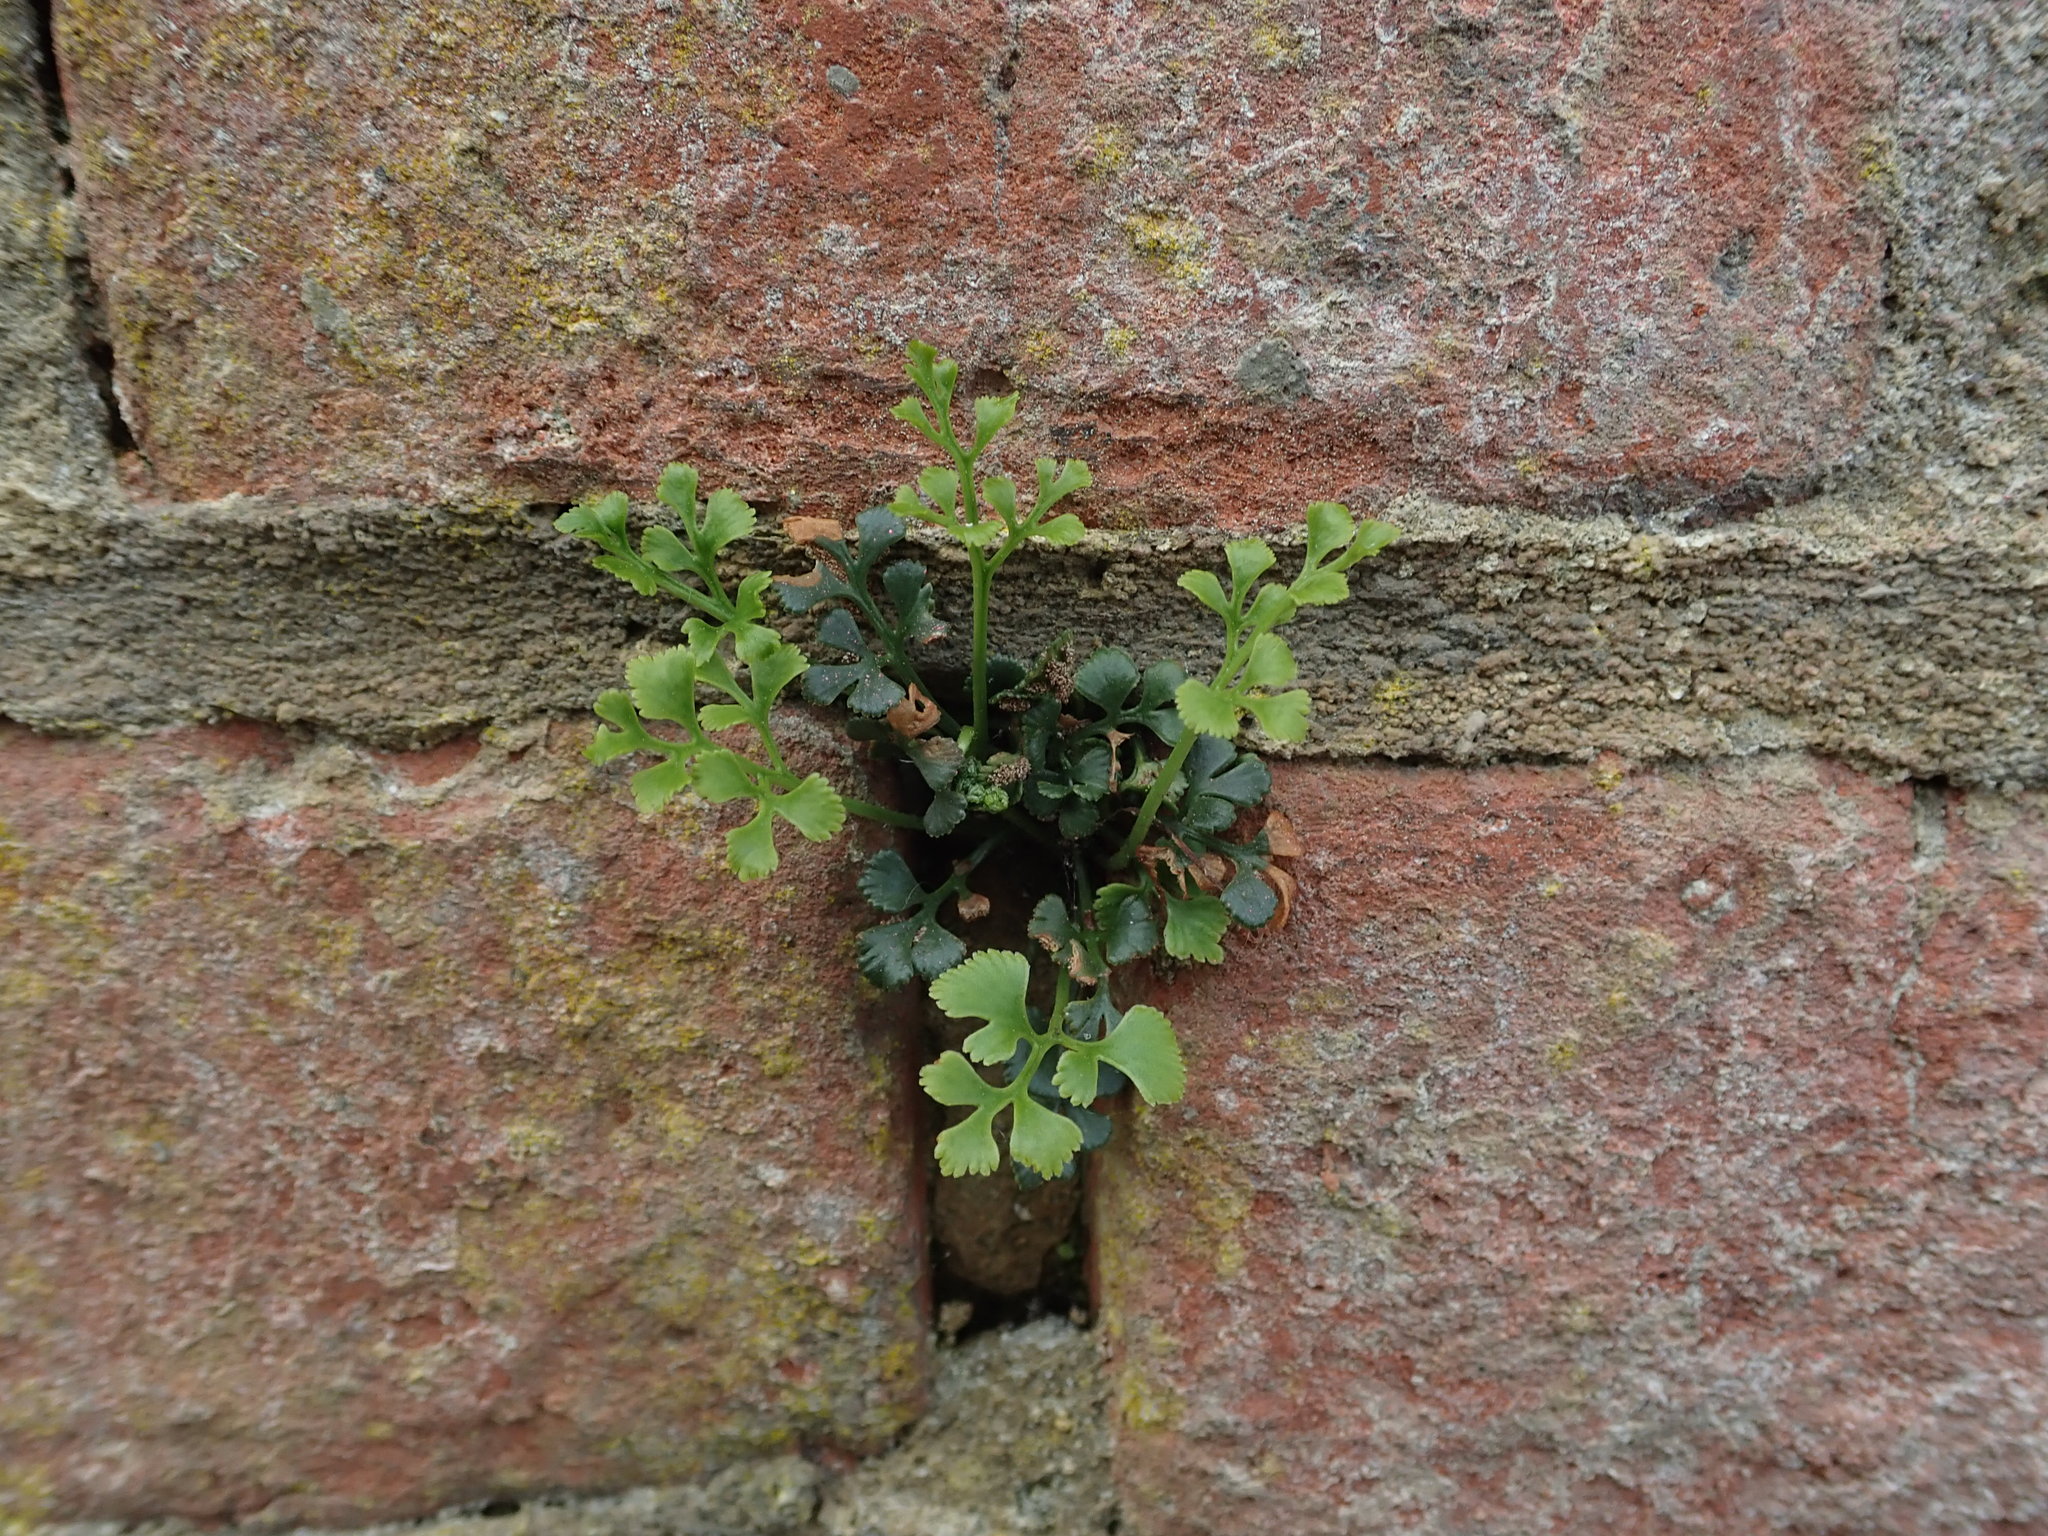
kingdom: Plantae
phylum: Tracheophyta
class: Polypodiopsida
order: Polypodiales
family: Aspleniaceae
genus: Asplenium
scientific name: Asplenium ruta-muraria
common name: Wall-rue
